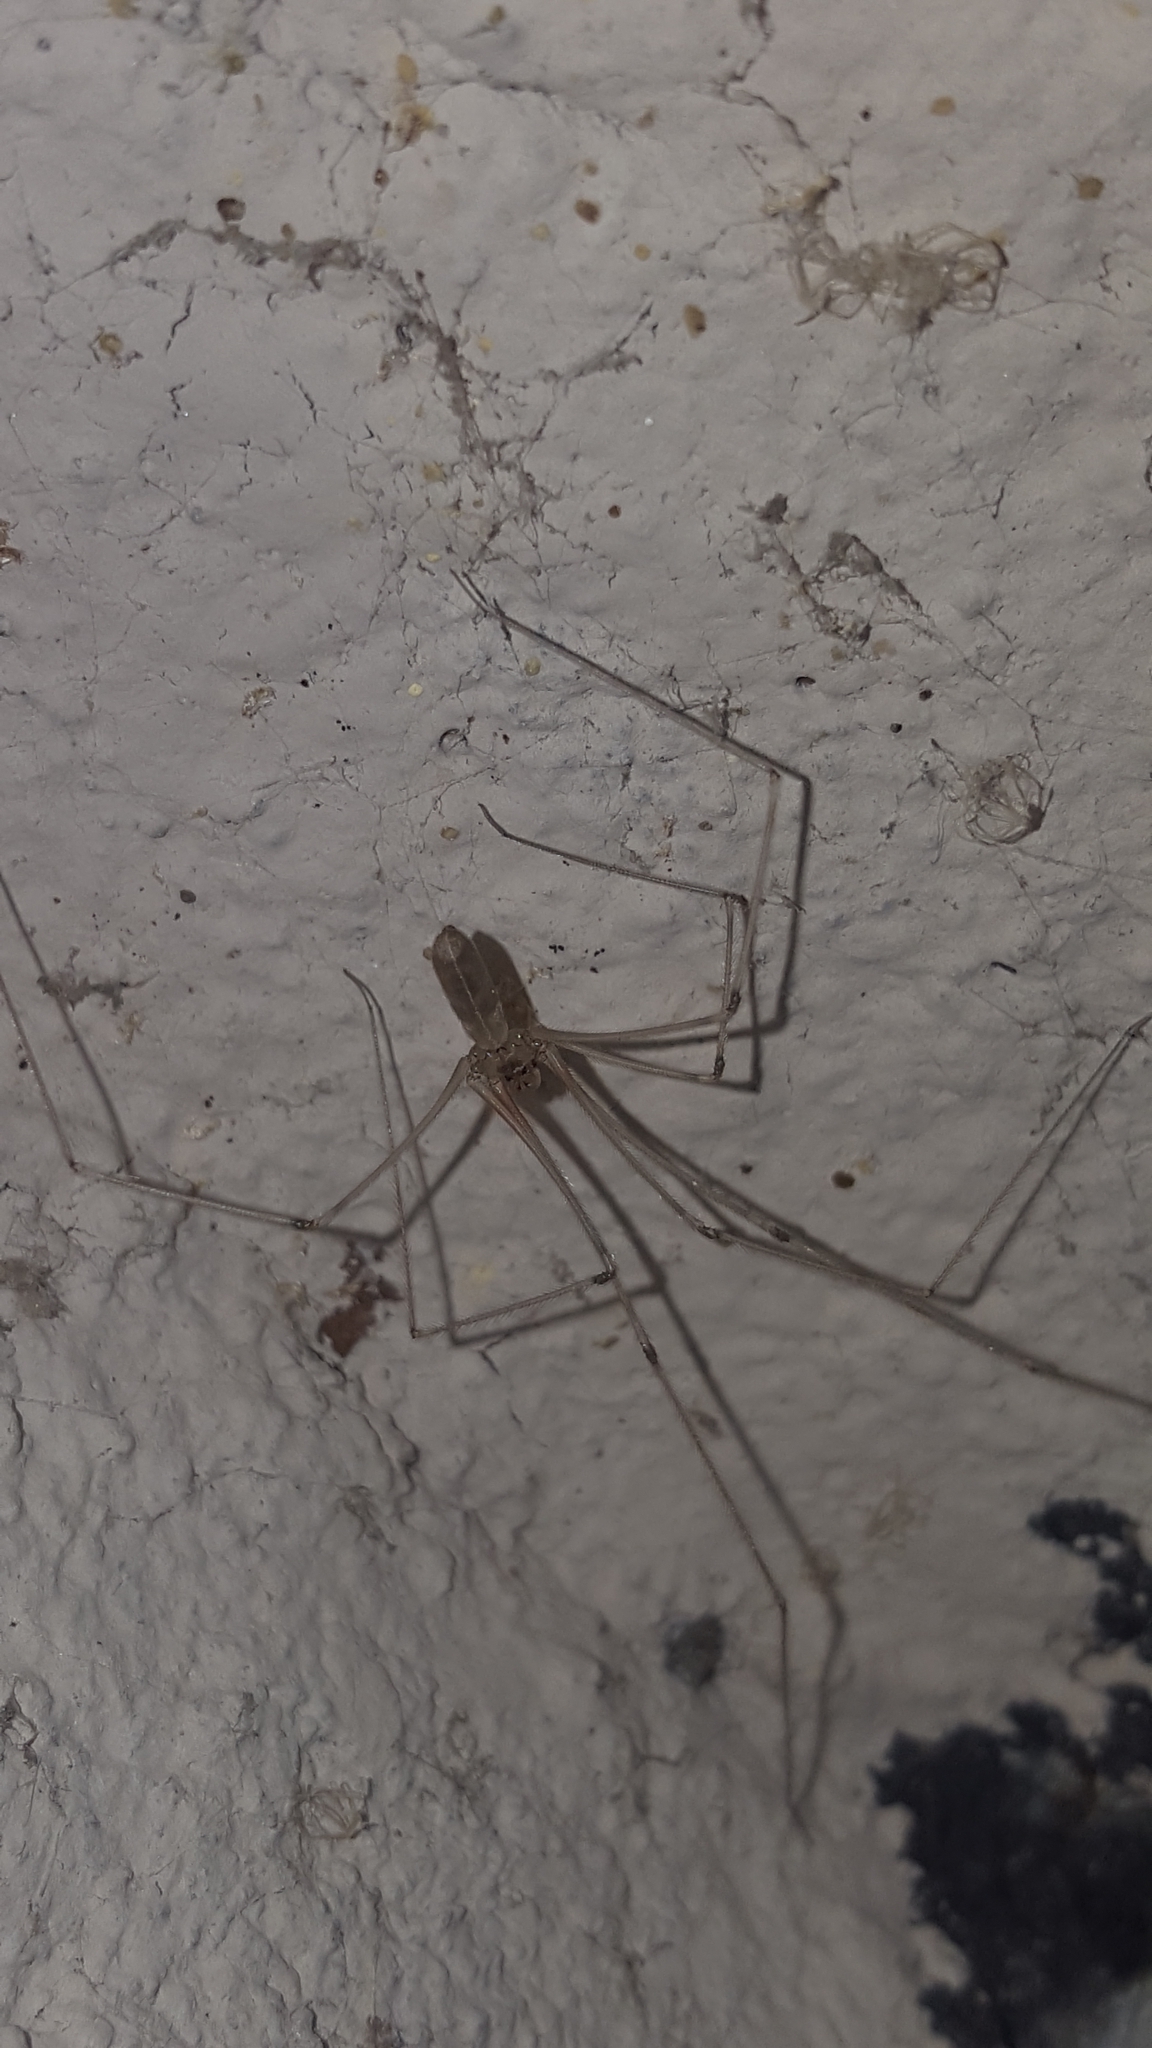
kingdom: Animalia
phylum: Arthropoda
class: Arachnida
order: Araneae
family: Pholcidae
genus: Pholcus
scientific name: Pholcus phalangioides
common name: Longbodied cellar spider
